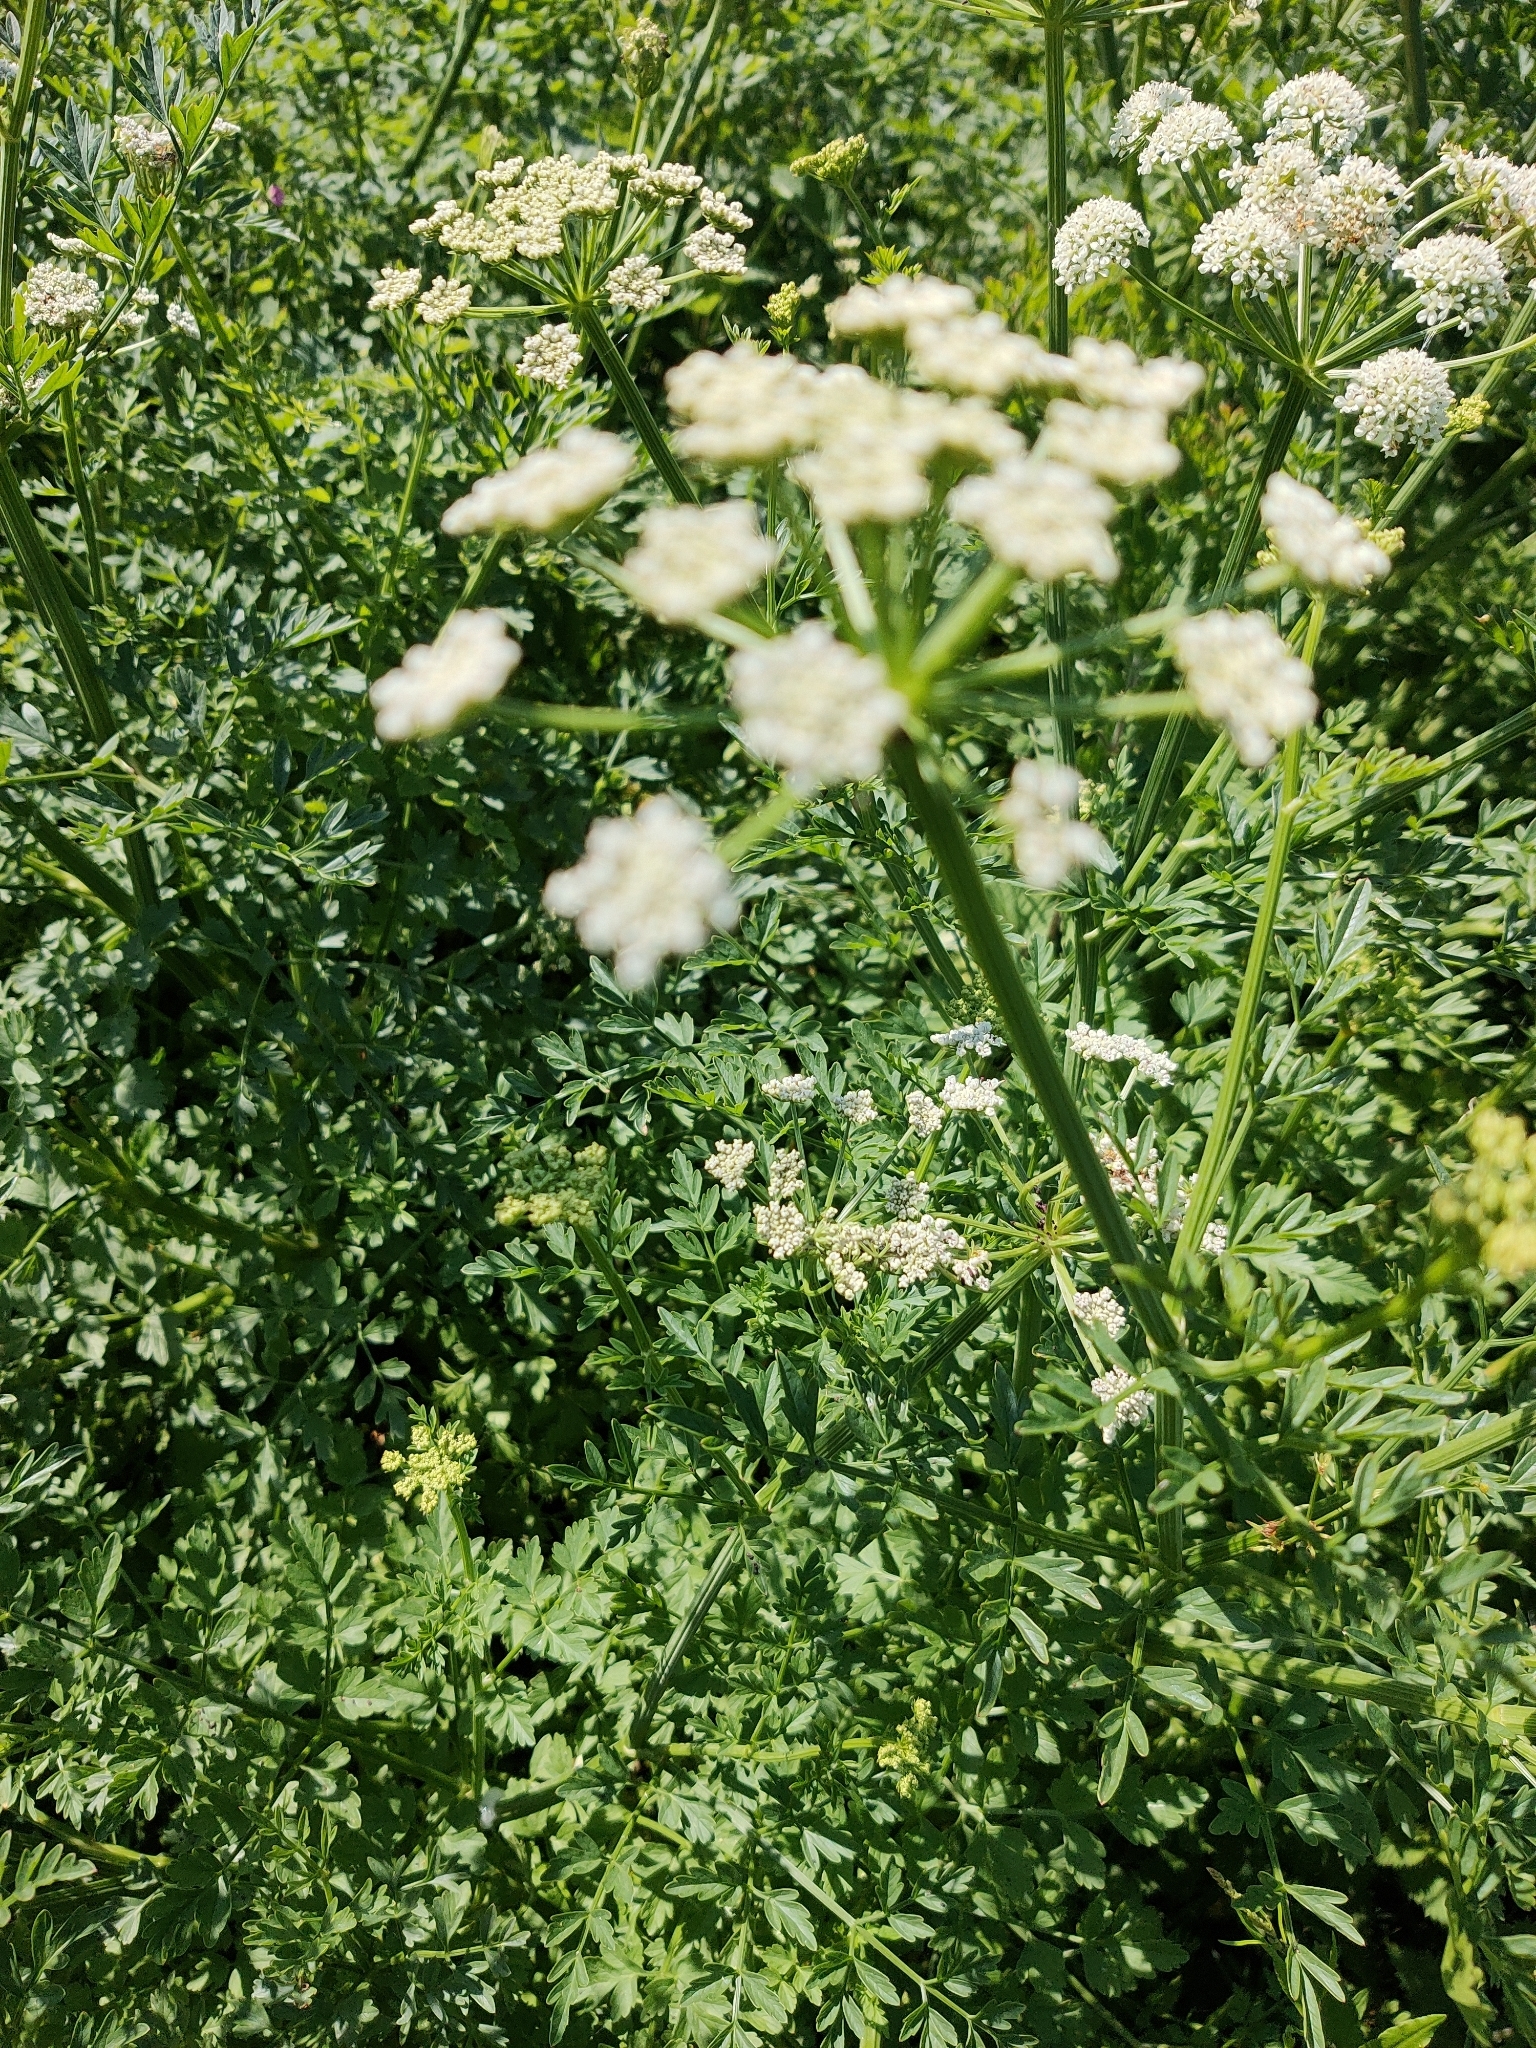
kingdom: Plantae
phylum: Tracheophyta
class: Magnoliopsida
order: Apiales
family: Apiaceae
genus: Oenanthe
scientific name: Oenanthe crocata
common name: Hemlock water-dropwort
